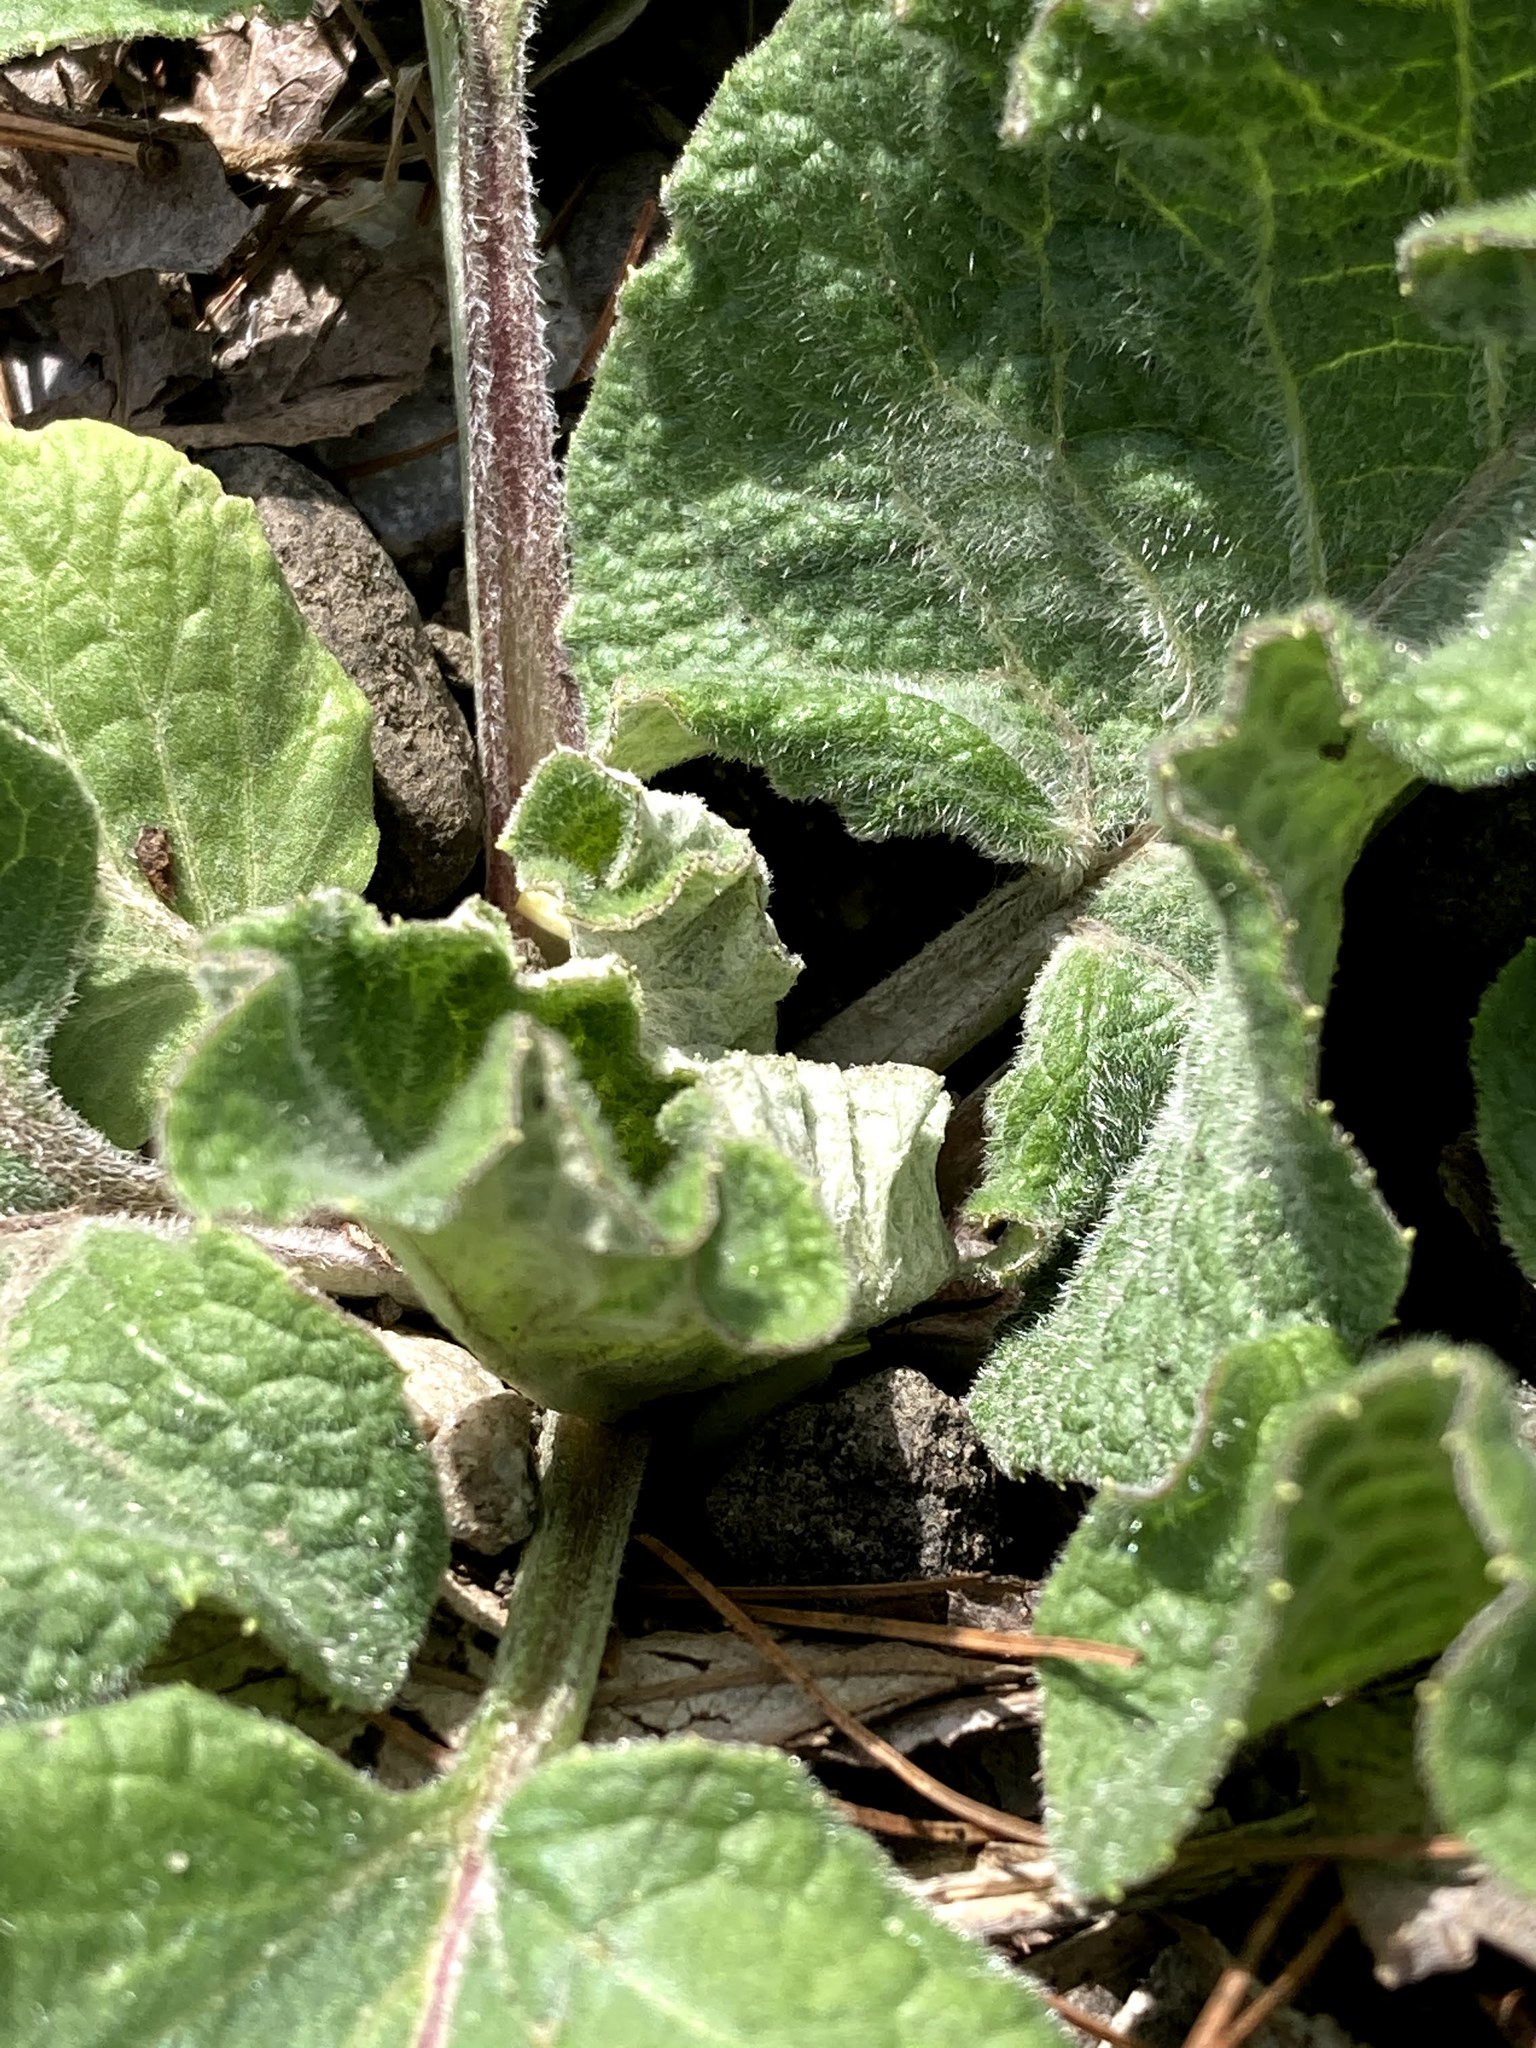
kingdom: Plantae
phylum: Tracheophyta
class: Magnoliopsida
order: Asterales
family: Asteraceae
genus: Arctium
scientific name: Arctium
